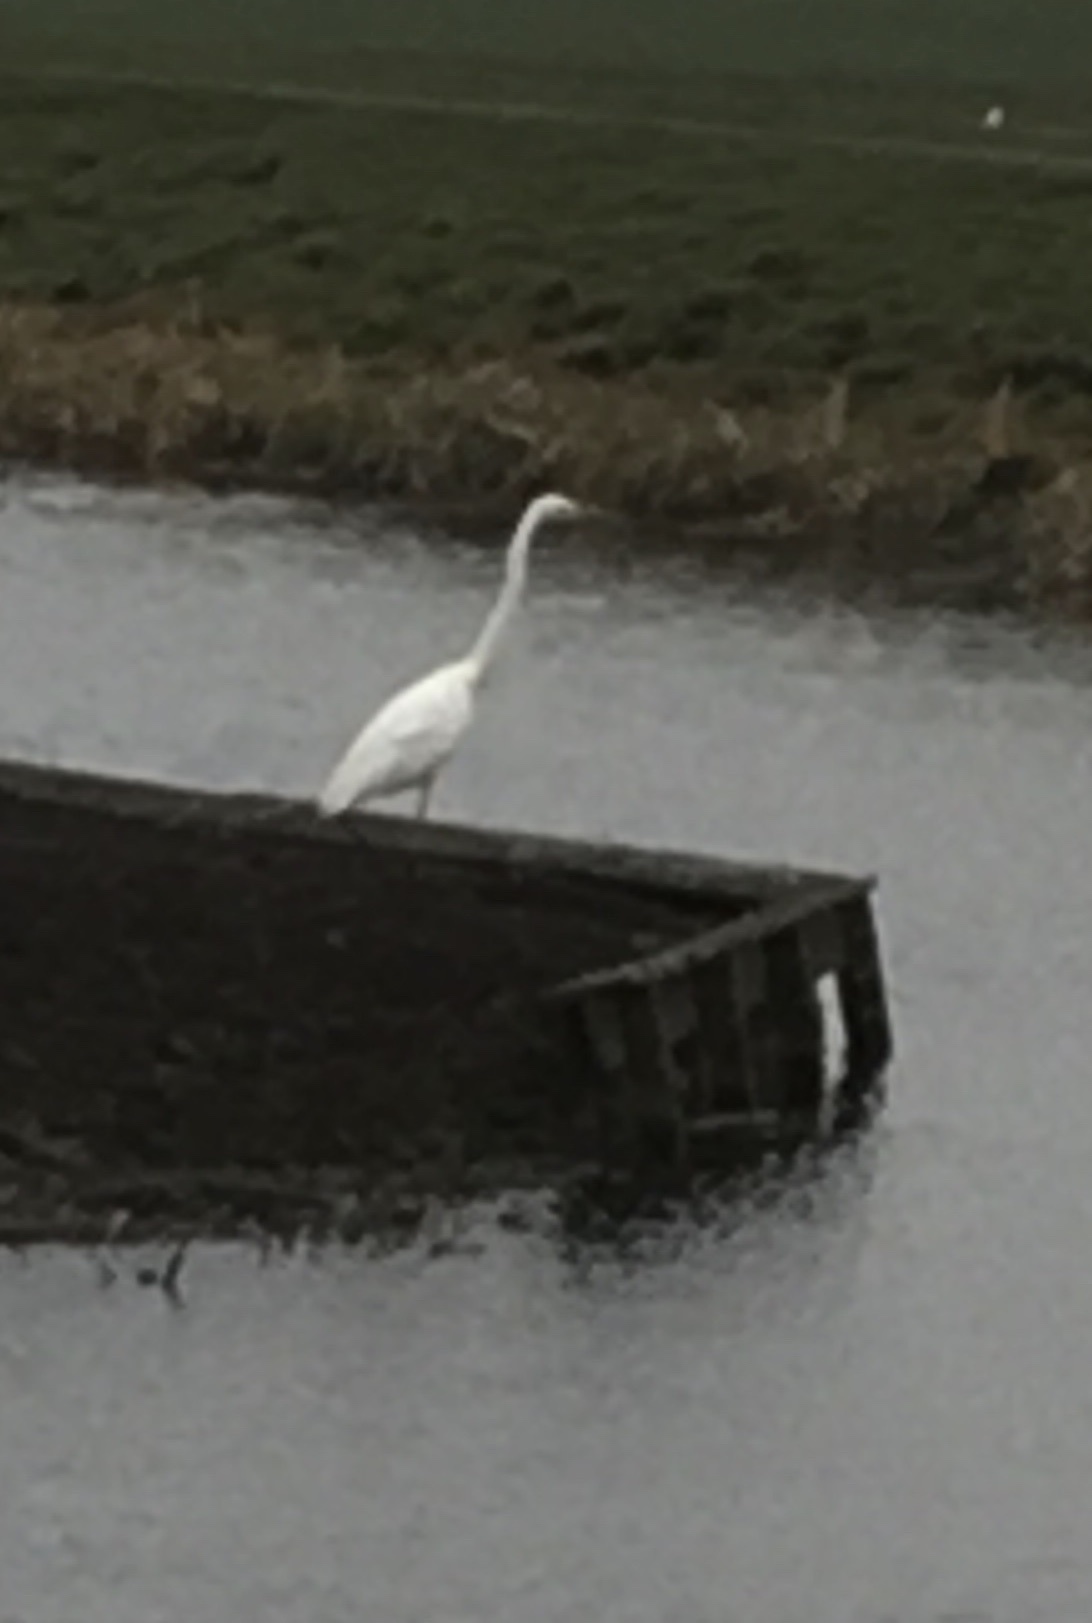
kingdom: Animalia
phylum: Chordata
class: Aves
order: Pelecaniformes
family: Ardeidae
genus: Ardea
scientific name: Ardea alba
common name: Great egret
